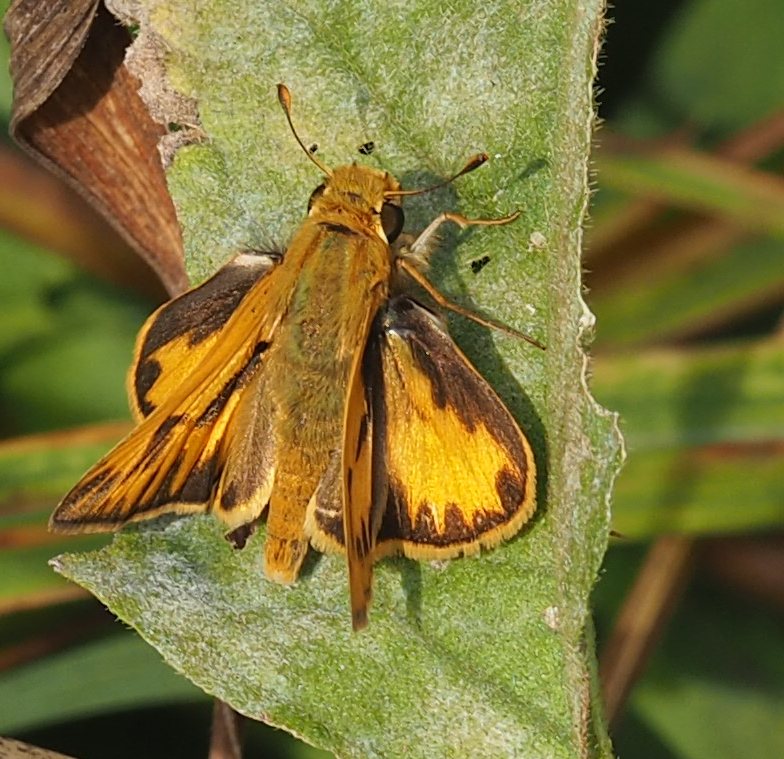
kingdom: Animalia
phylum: Arthropoda
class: Insecta
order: Lepidoptera
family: Hesperiidae
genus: Hylephila
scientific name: Hylephila phyleus
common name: Fiery skipper
